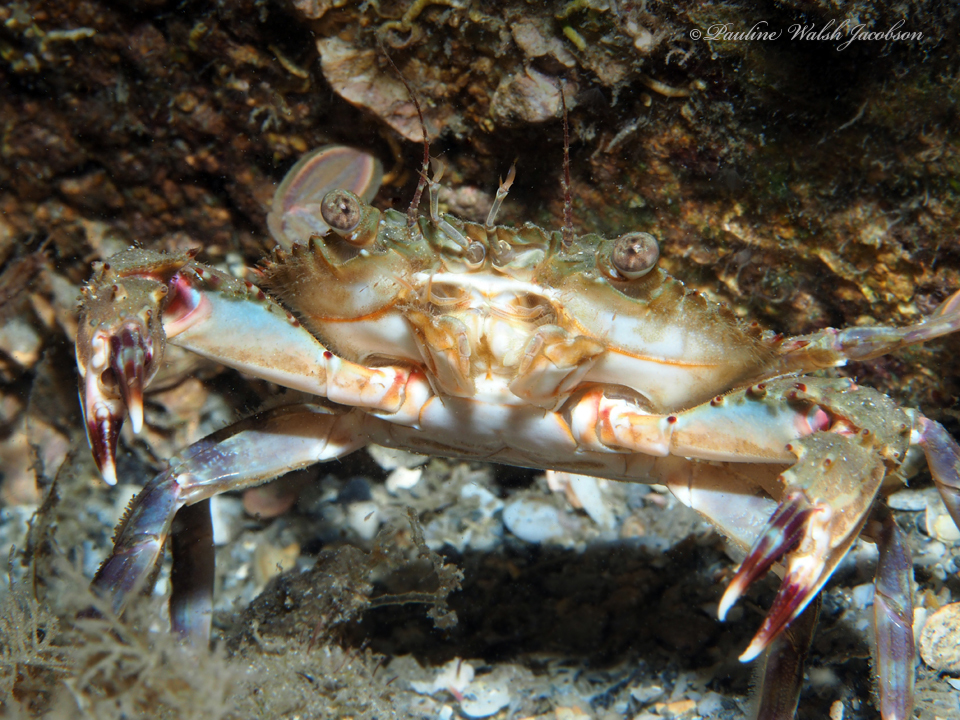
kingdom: Animalia
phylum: Arthropoda
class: Malacostraca
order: Decapoda
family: Portunidae
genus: Charybdis
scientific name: Charybdis hellerii
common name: Spiny hands
